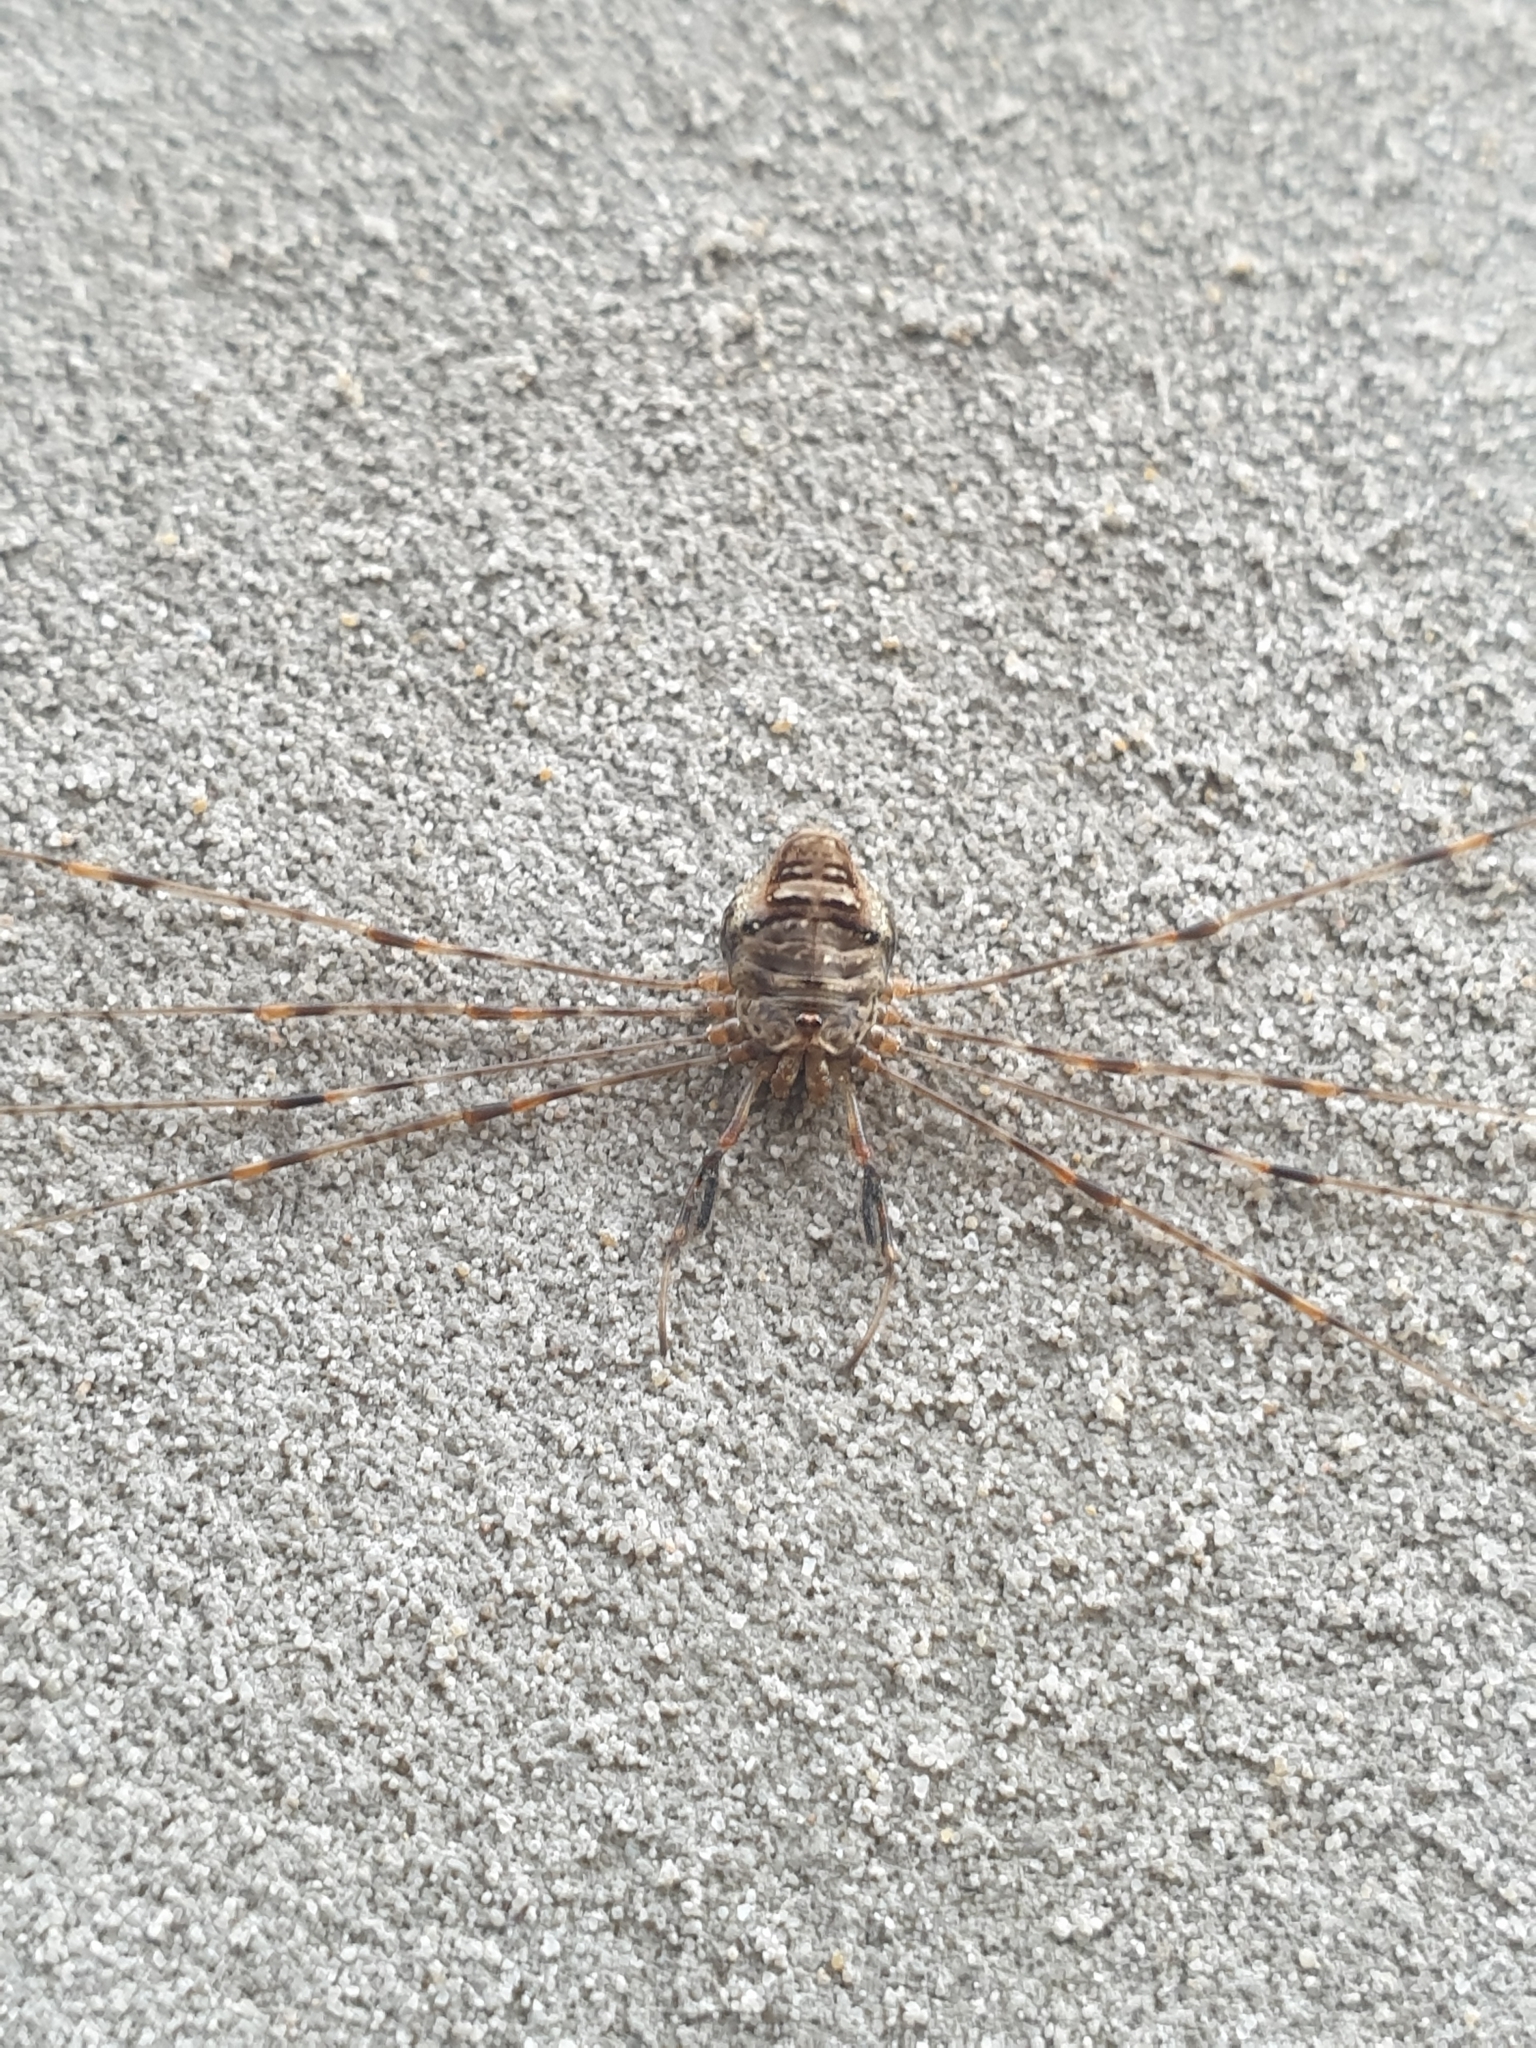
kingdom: Animalia
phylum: Arthropoda
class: Arachnida
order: Opiliones
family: Phalangiidae
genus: Dicranopalpus
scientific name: Dicranopalpus ramosus
